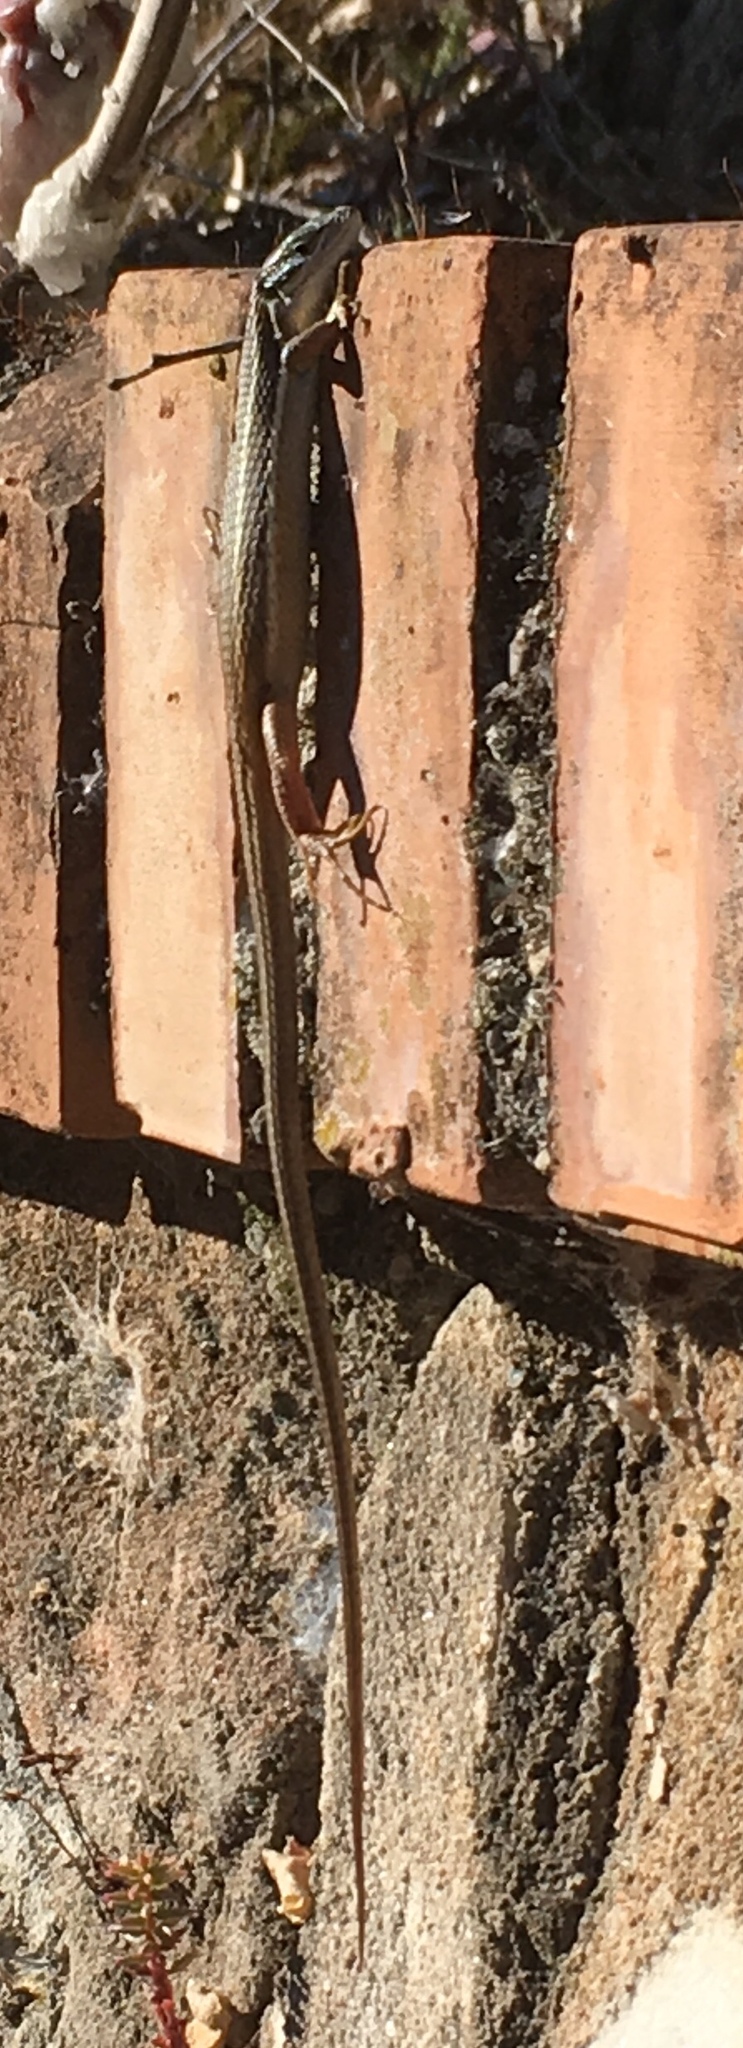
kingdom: Animalia
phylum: Chordata
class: Squamata
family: Lacertidae
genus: Psammodromus
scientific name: Psammodromus algirus
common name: Algerian psammodromus
